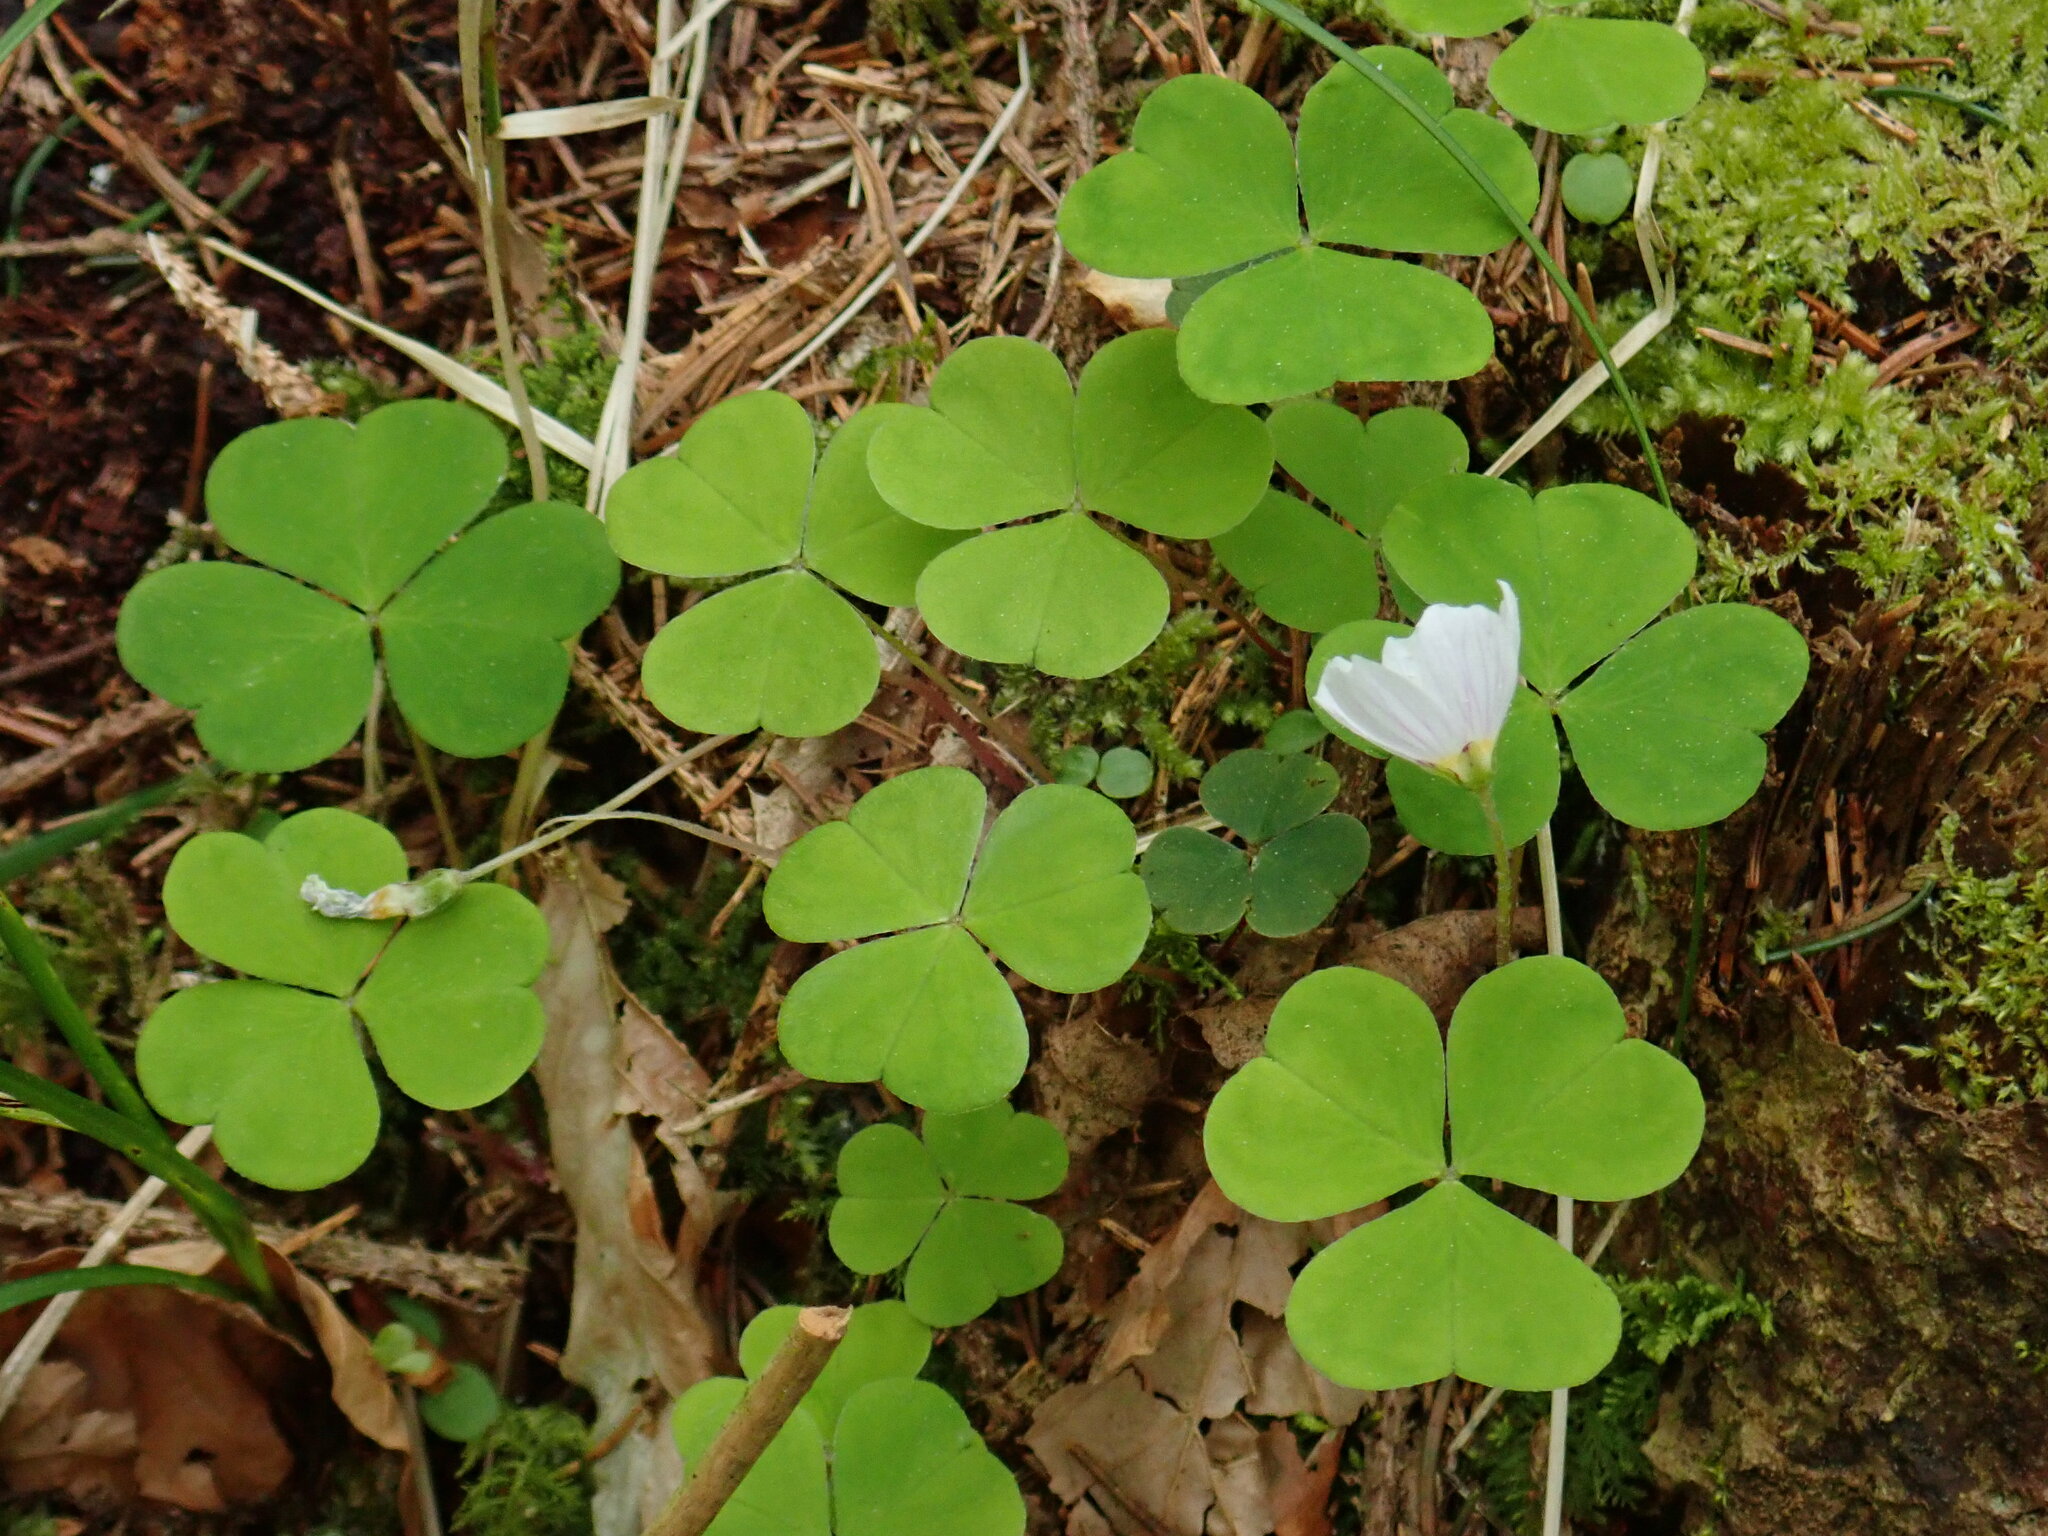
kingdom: Plantae
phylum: Tracheophyta
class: Magnoliopsida
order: Oxalidales
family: Oxalidaceae
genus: Oxalis
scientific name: Oxalis acetosella
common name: Wood-sorrel
